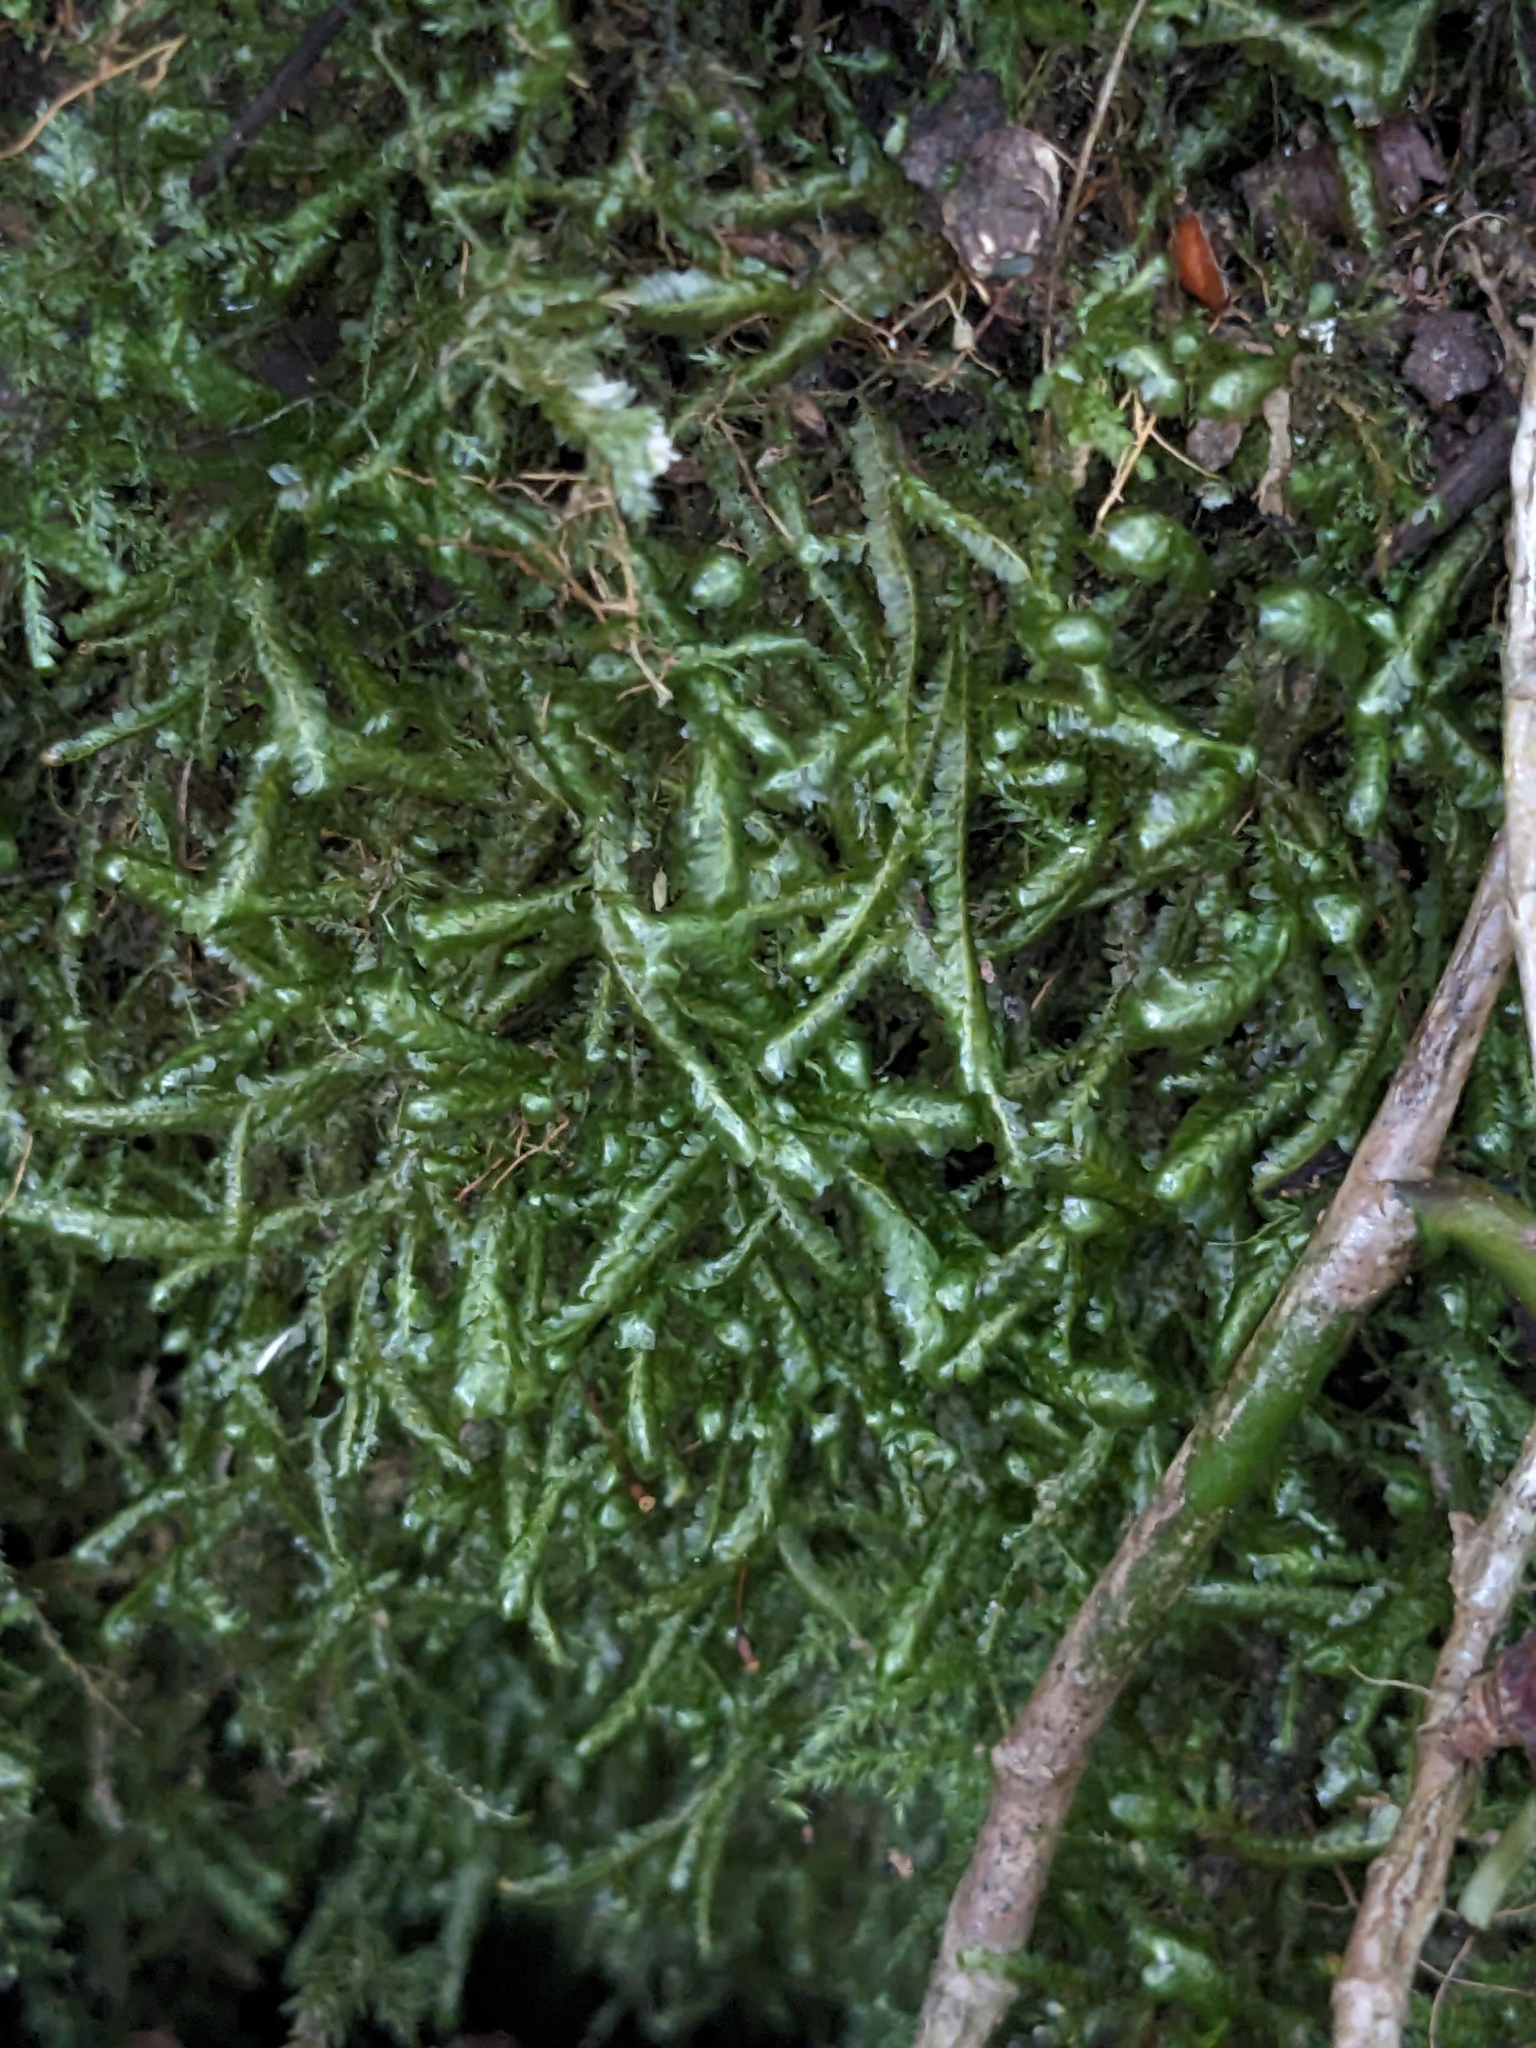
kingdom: Plantae
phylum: Bryophyta
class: Bryopsida
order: Hypnales
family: Neckeraceae
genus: Homalia
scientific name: Homalia trichomanoides
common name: Lime homalia moss
